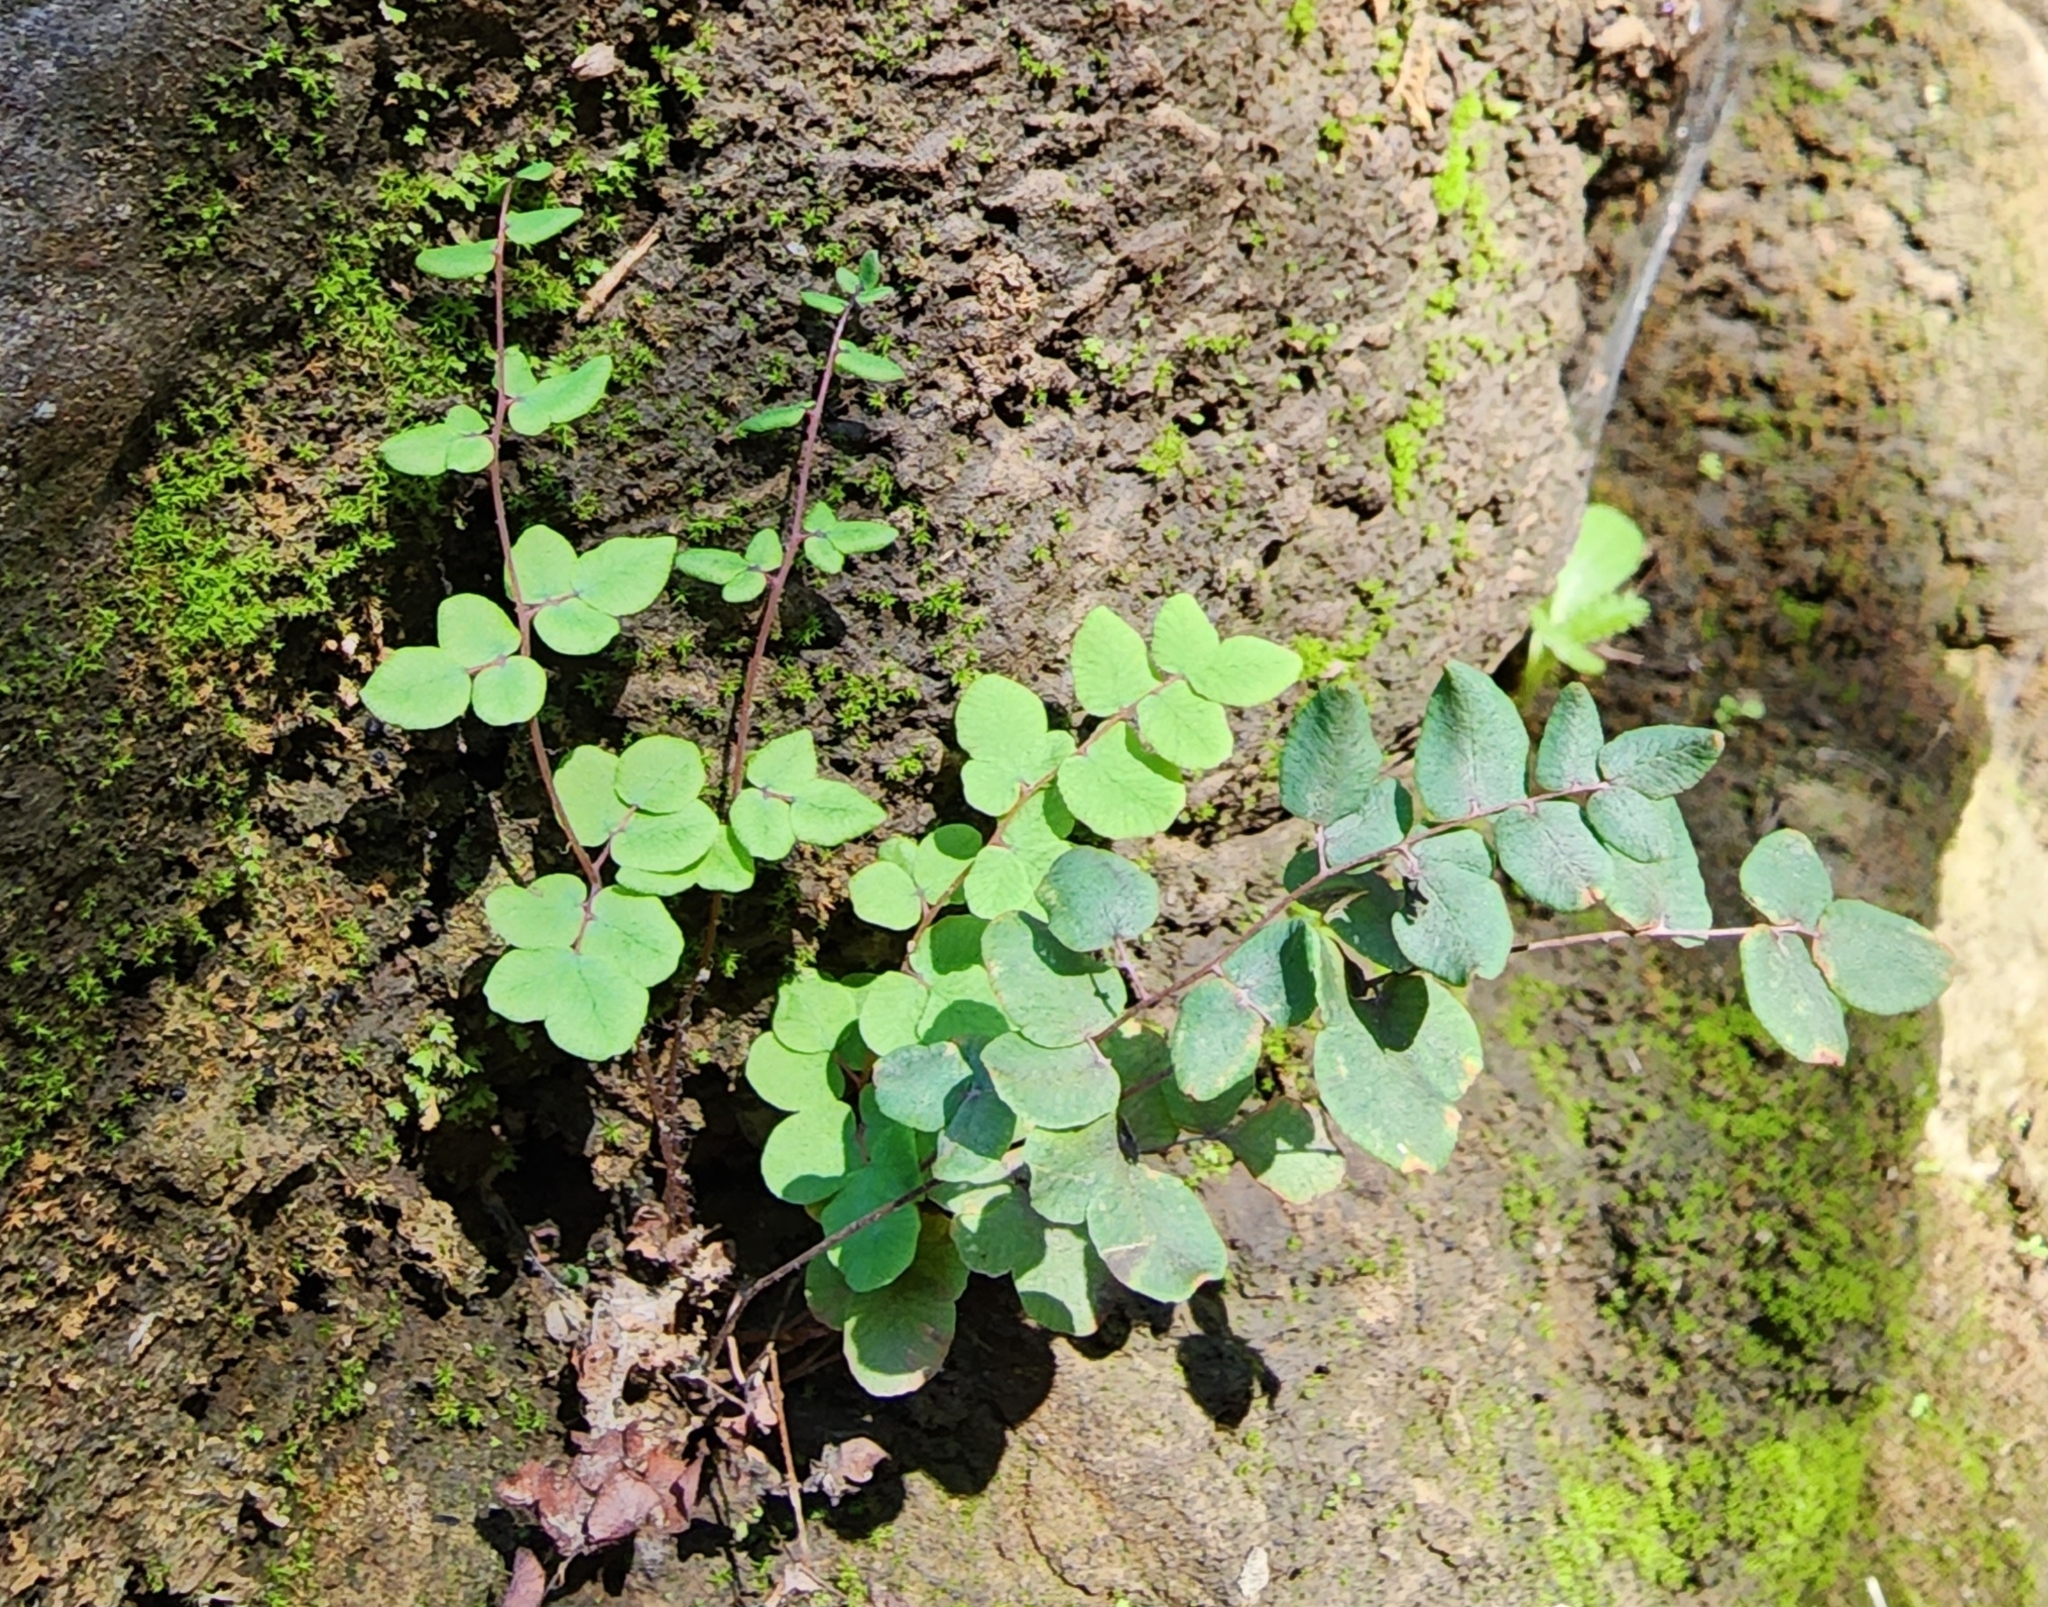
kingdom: Plantae
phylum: Tracheophyta
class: Polypodiopsida
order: Polypodiales
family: Pteridaceae
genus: Pellaea
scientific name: Pellaea andromedifolia
